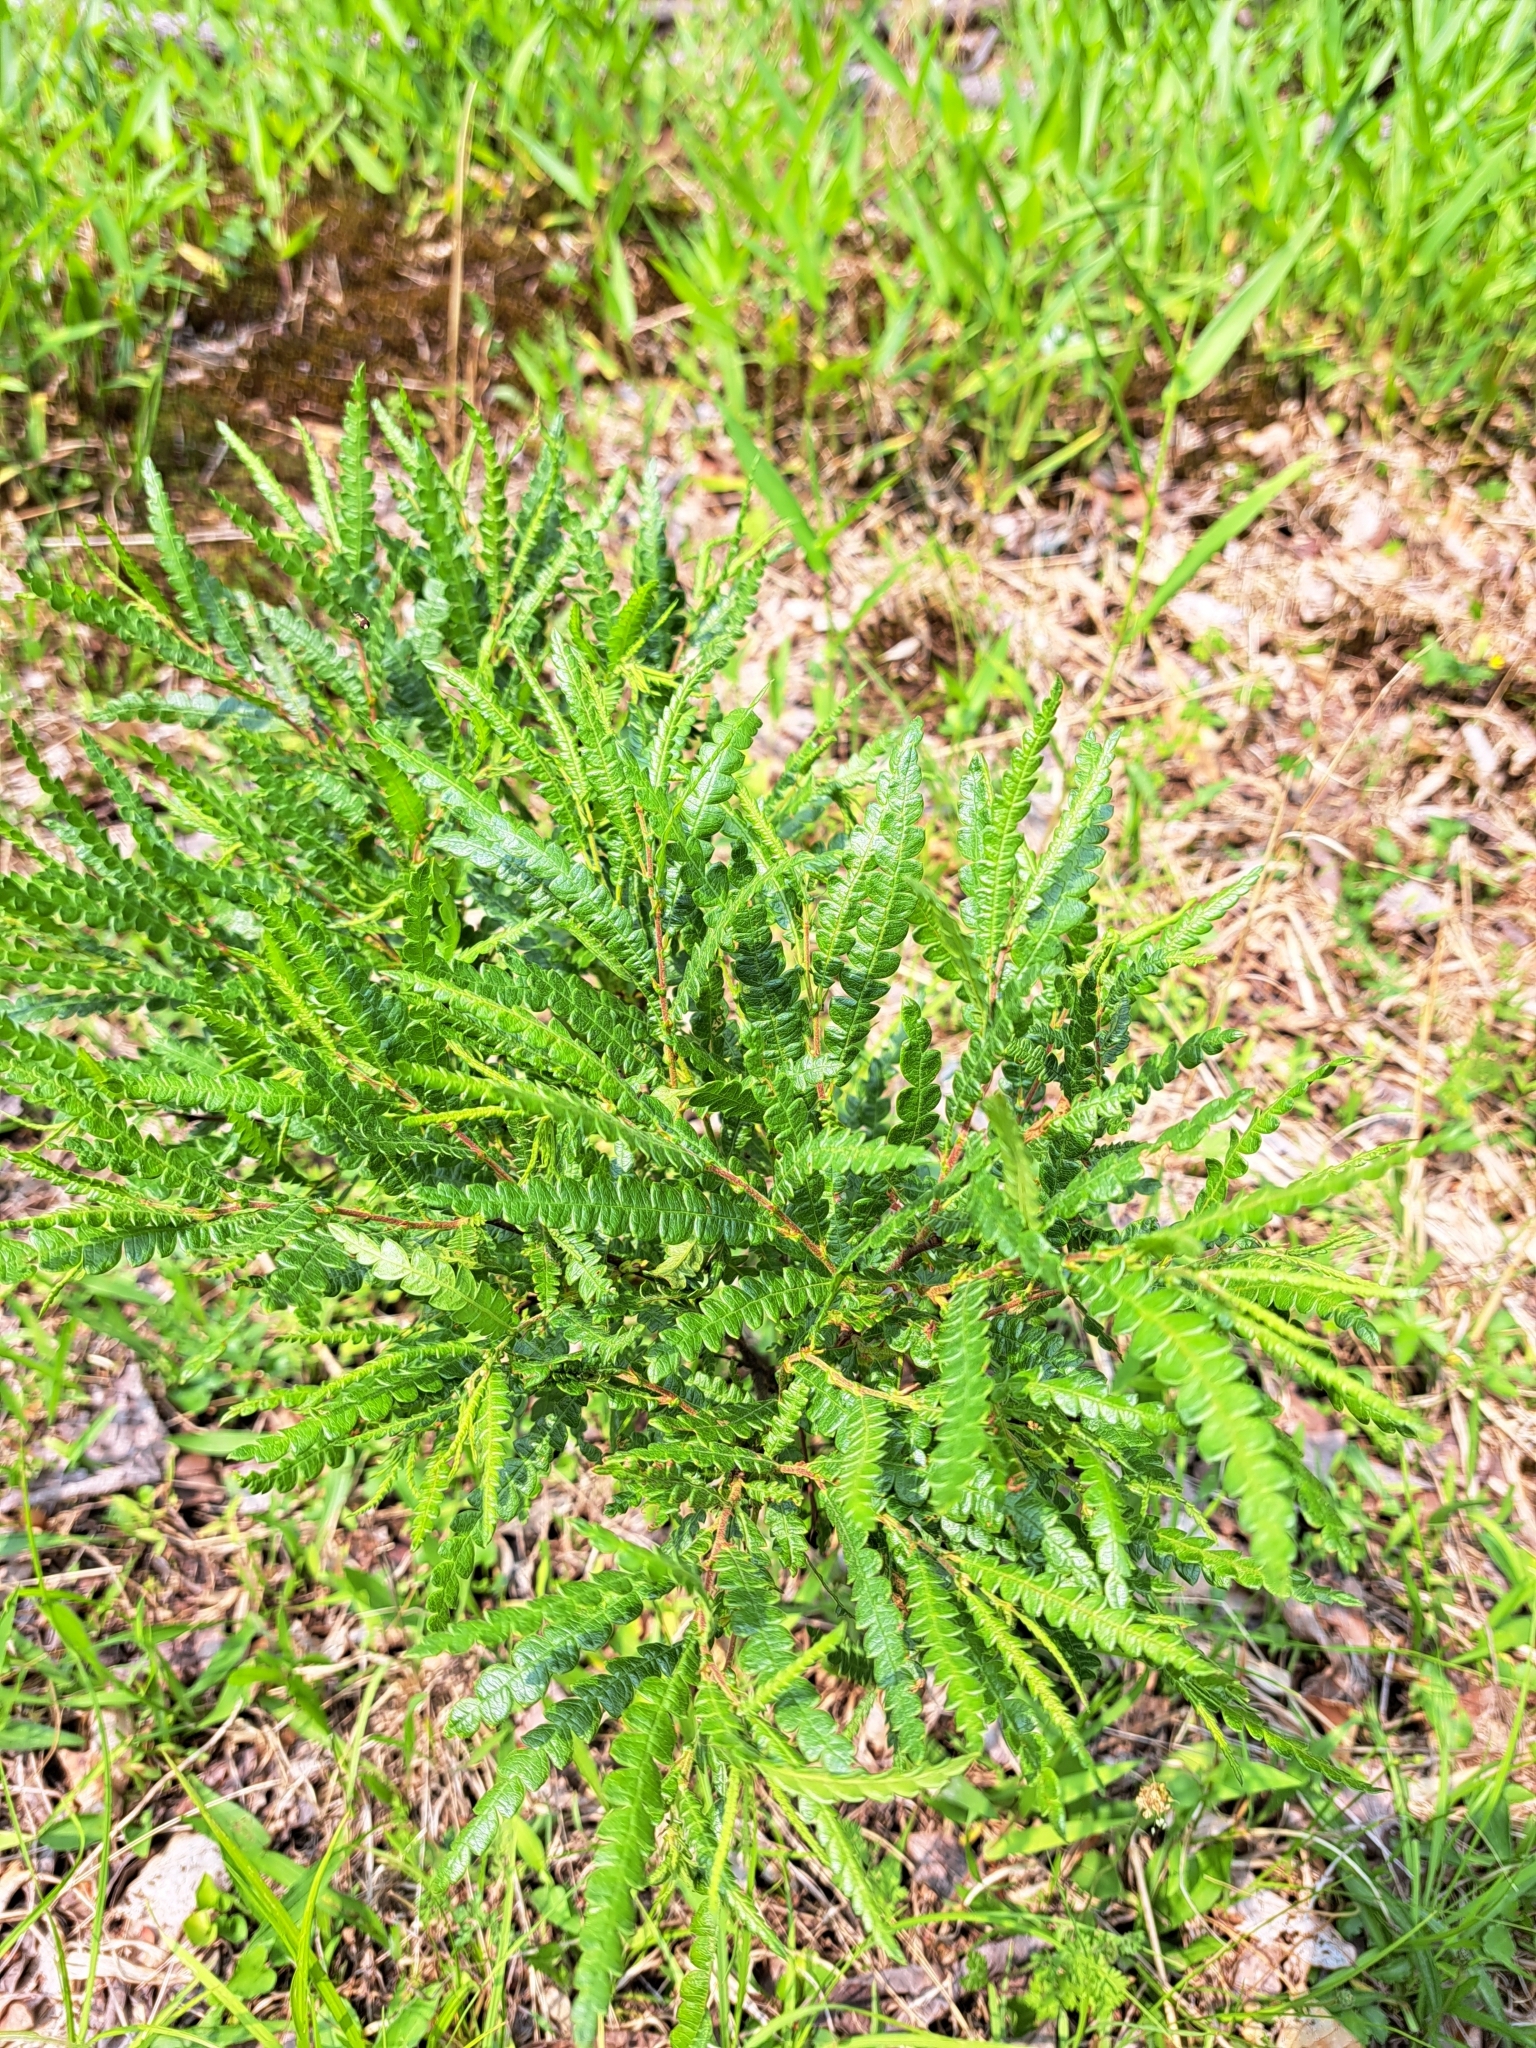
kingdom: Plantae
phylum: Tracheophyta
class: Magnoliopsida
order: Fagales
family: Myricaceae
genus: Comptonia
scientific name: Comptonia peregrina
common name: Sweet-fern
